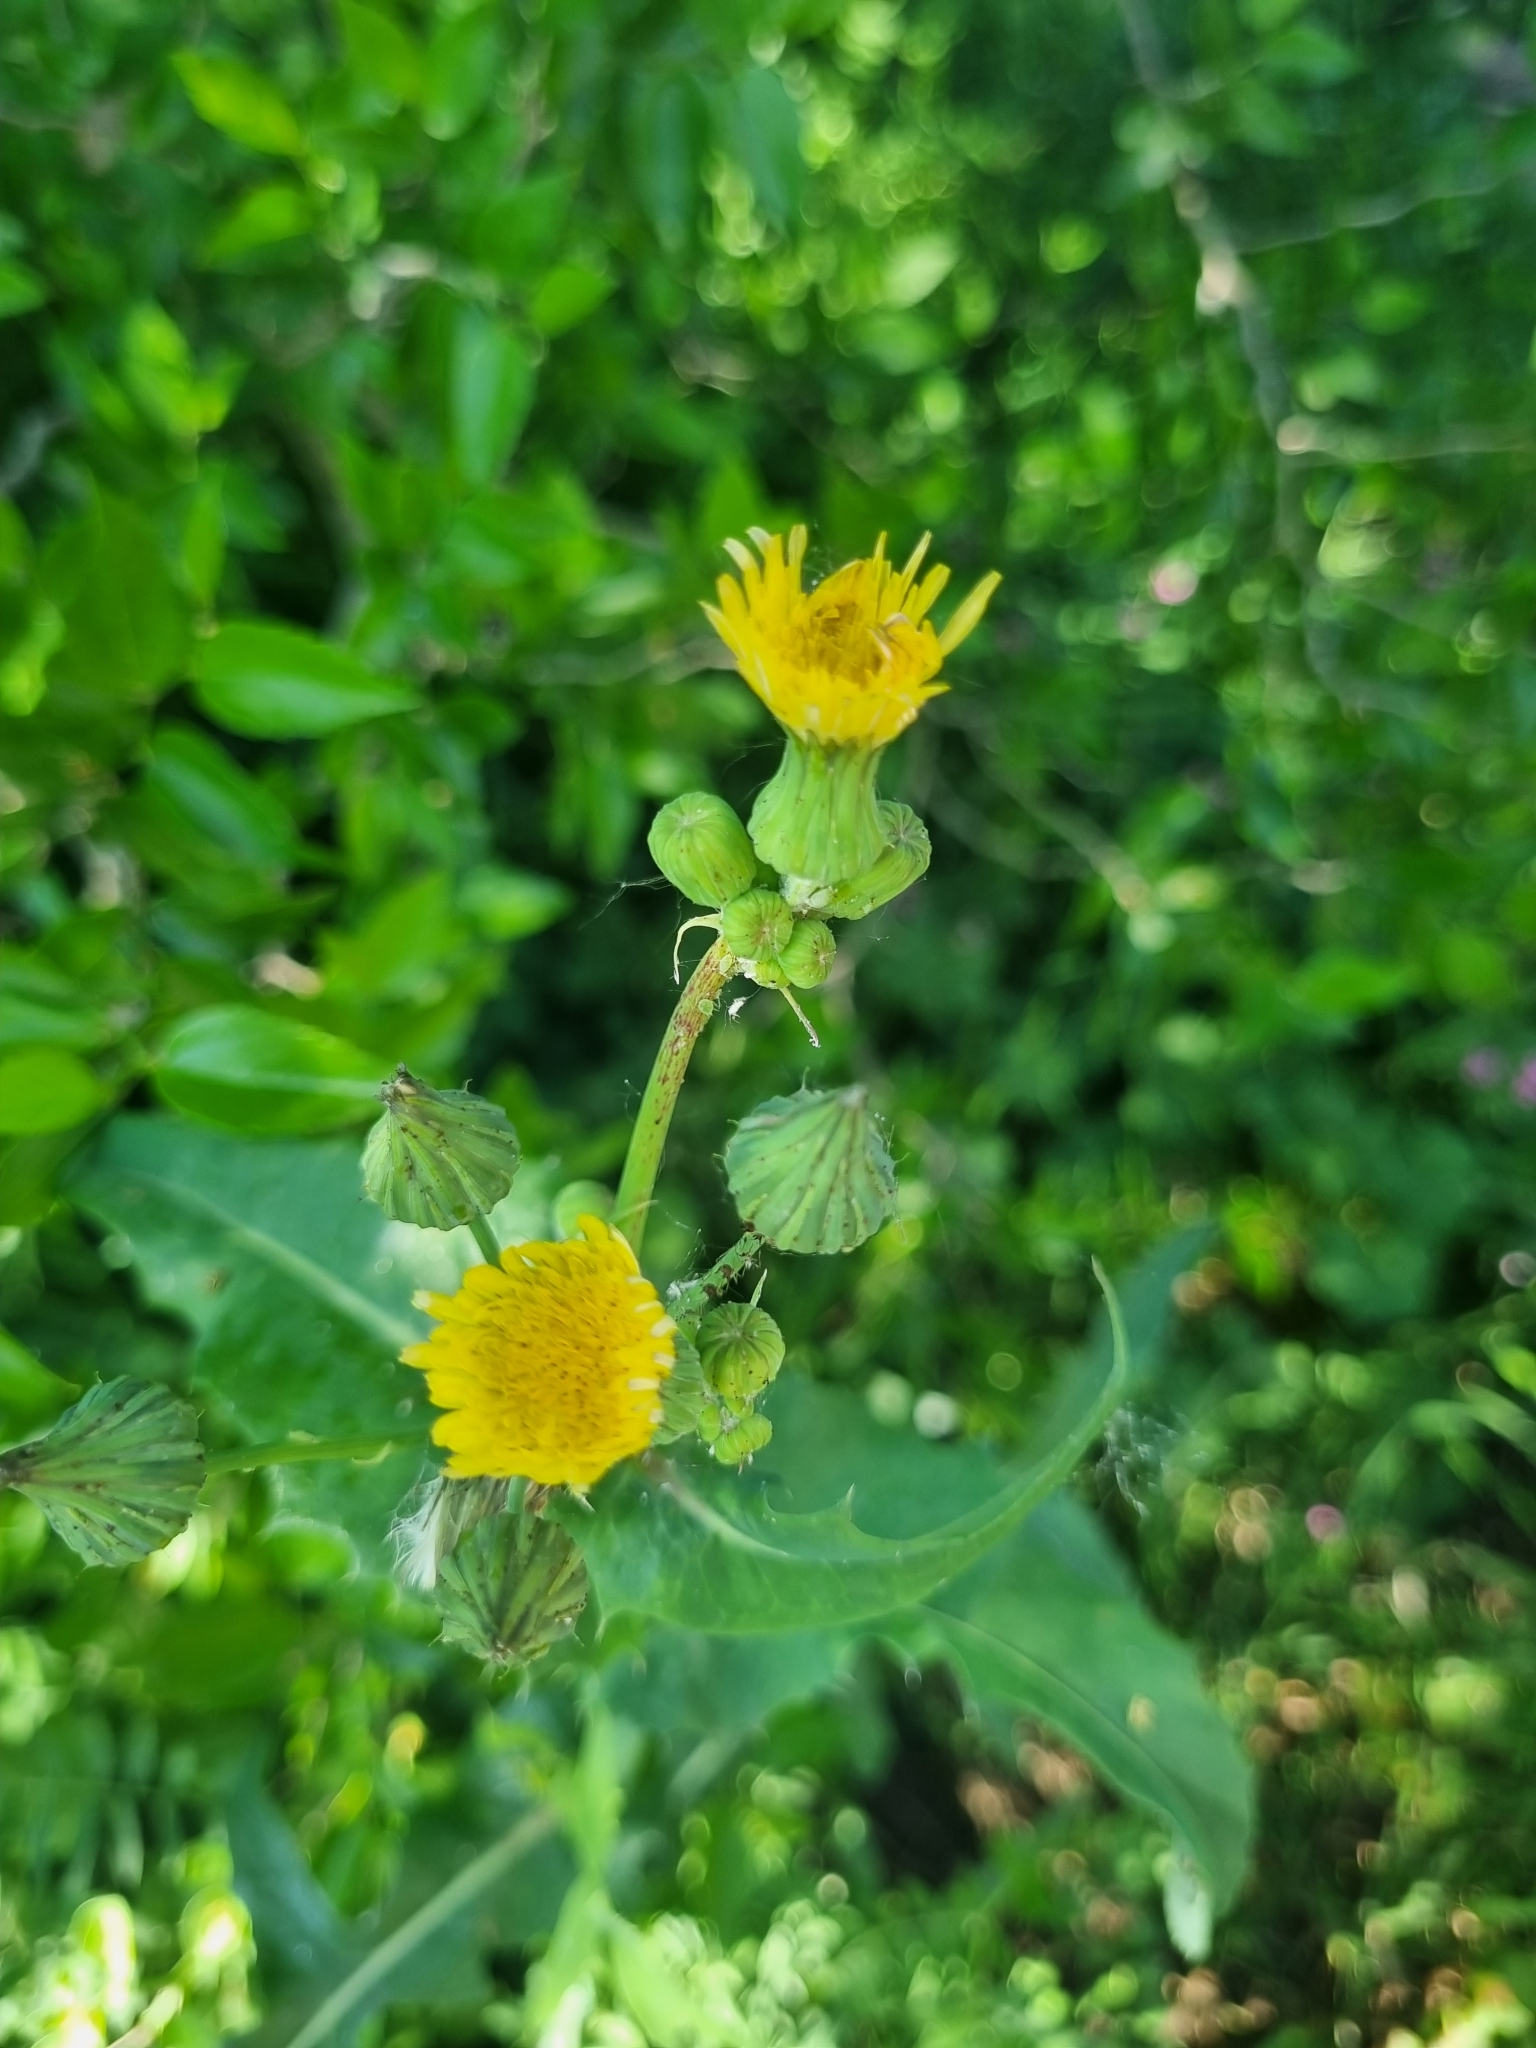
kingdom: Plantae
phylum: Tracheophyta
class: Magnoliopsida
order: Asterales
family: Asteraceae
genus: Sonchus
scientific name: Sonchus oleraceus
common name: Common sowthistle
